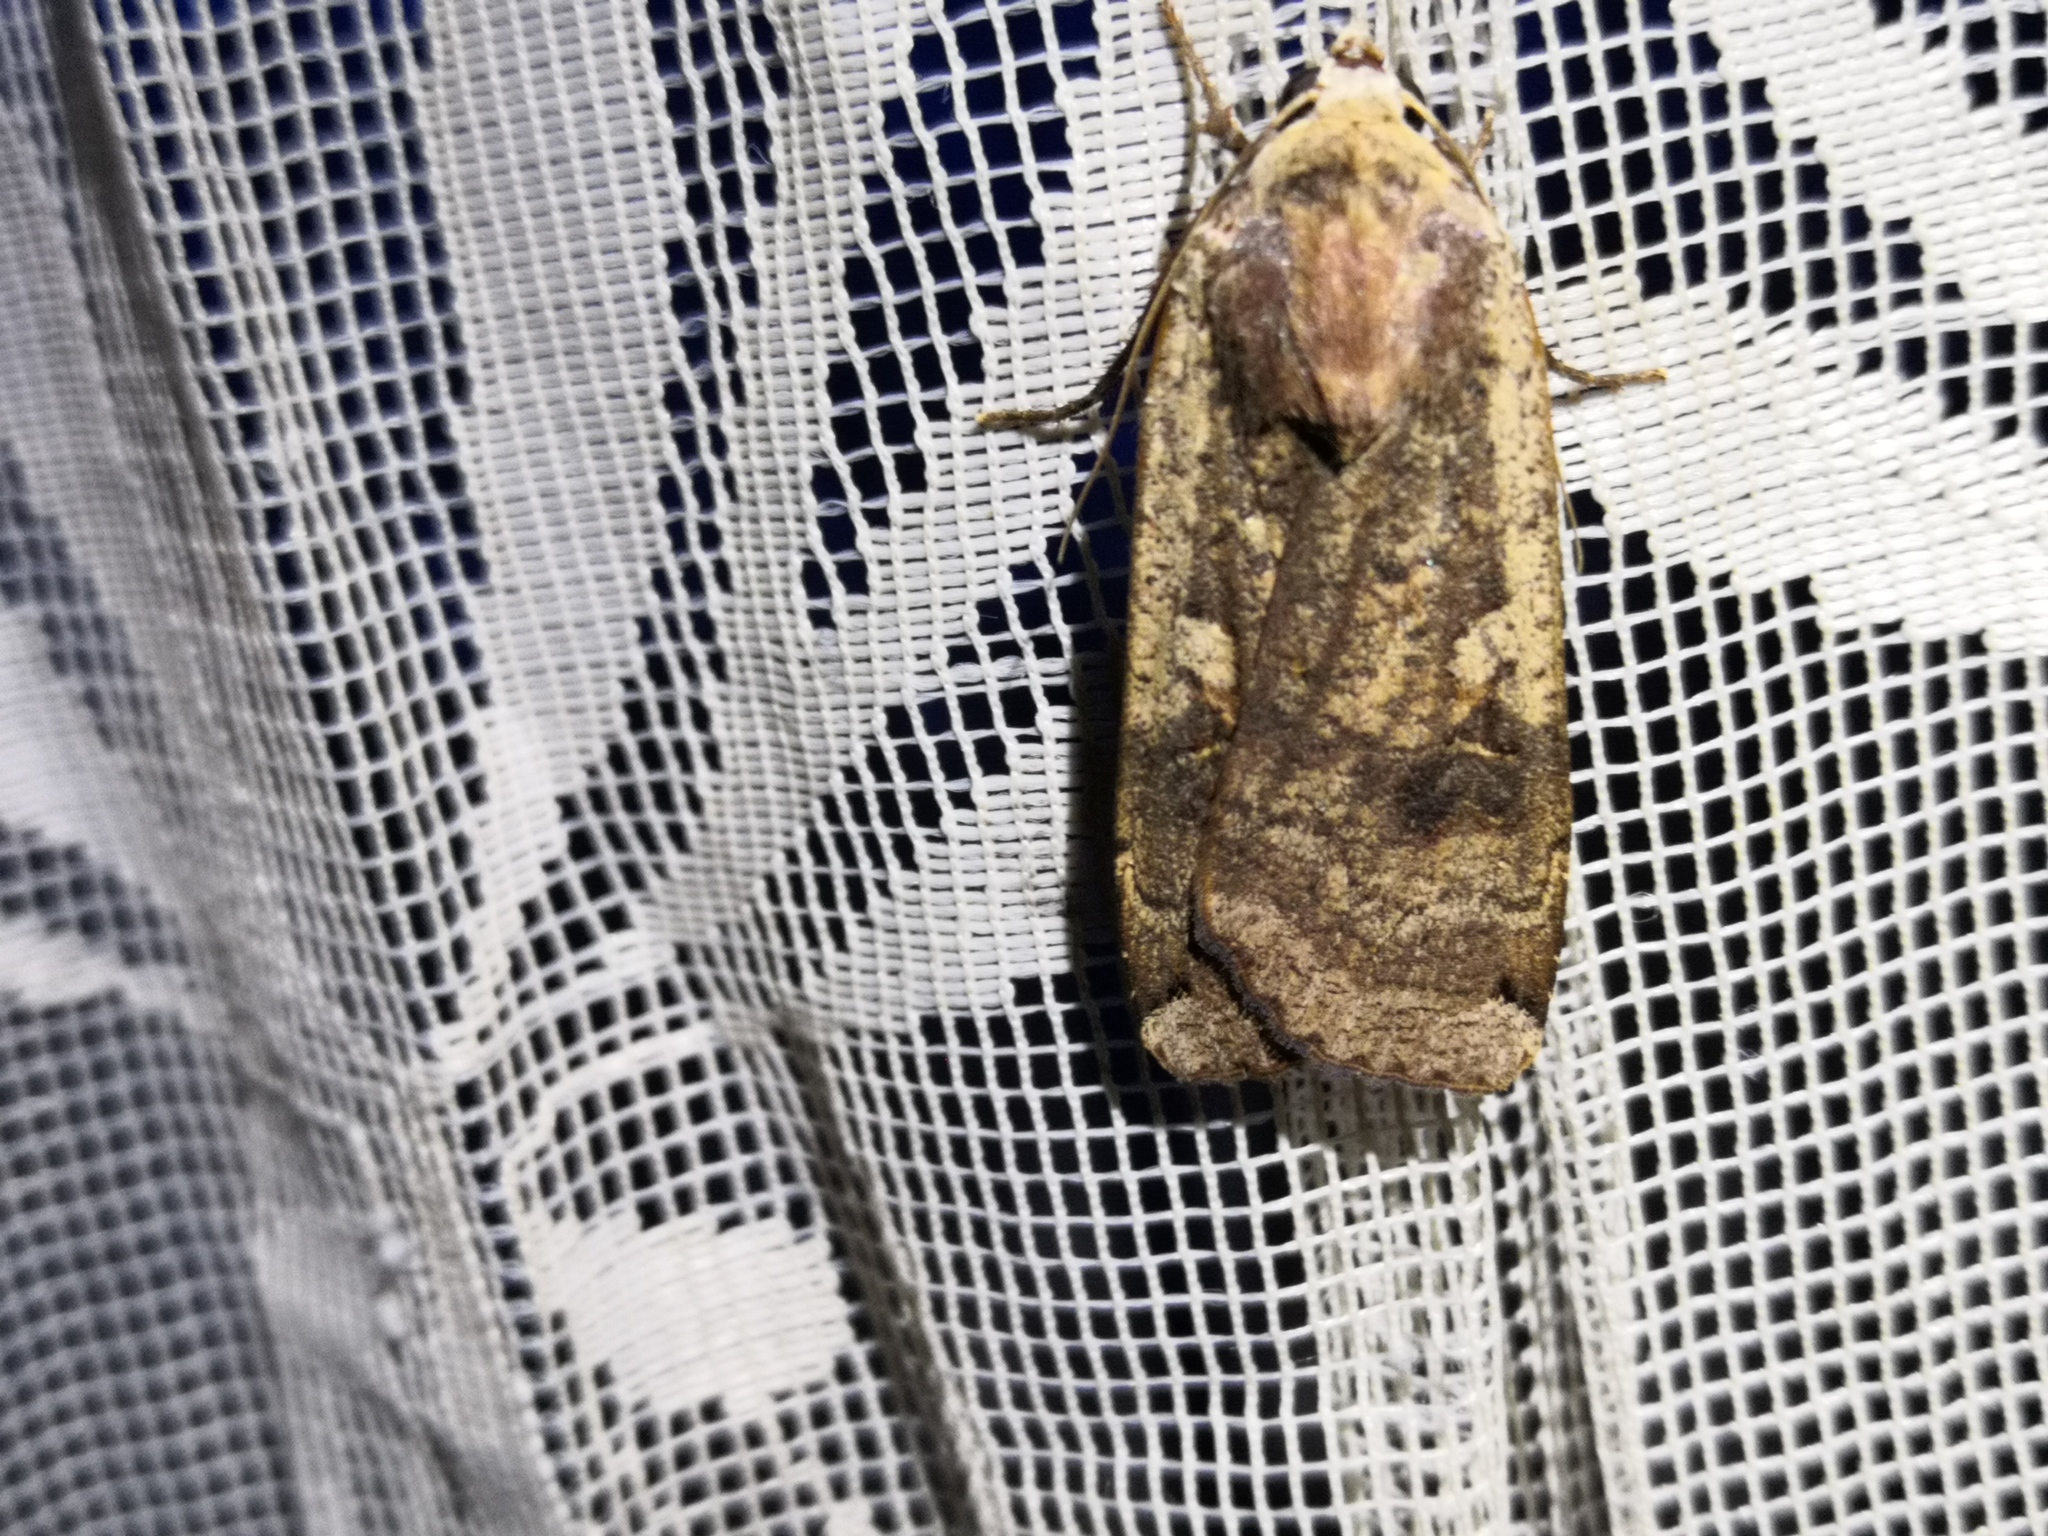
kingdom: Animalia
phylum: Arthropoda
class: Insecta
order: Lepidoptera
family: Noctuidae
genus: Noctua
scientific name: Noctua pronuba
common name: Large yellow underwing
